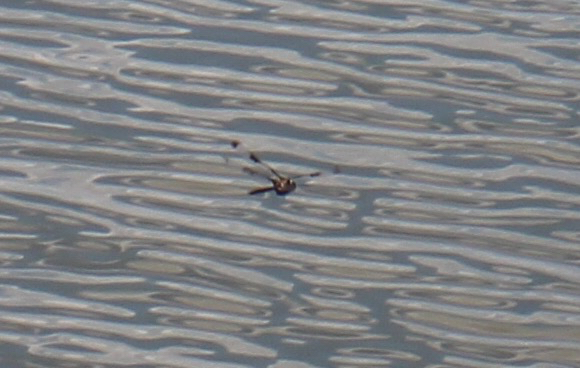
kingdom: Animalia
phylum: Arthropoda
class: Insecta
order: Odonata
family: Corduliidae
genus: Epitheca
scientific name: Epitheca princeps
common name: Prince baskettail
